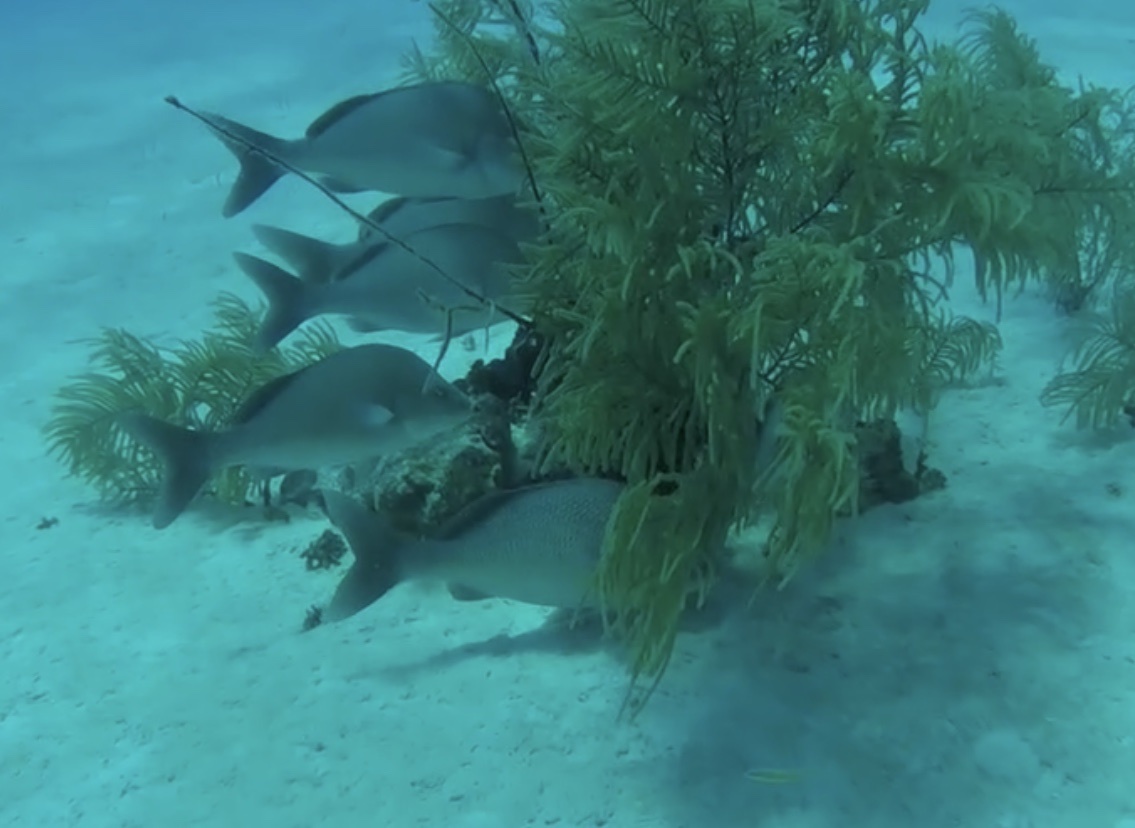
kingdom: Animalia
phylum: Chordata
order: Perciformes
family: Haemulidae
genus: Haemulon
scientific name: Haemulon album
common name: Margate
